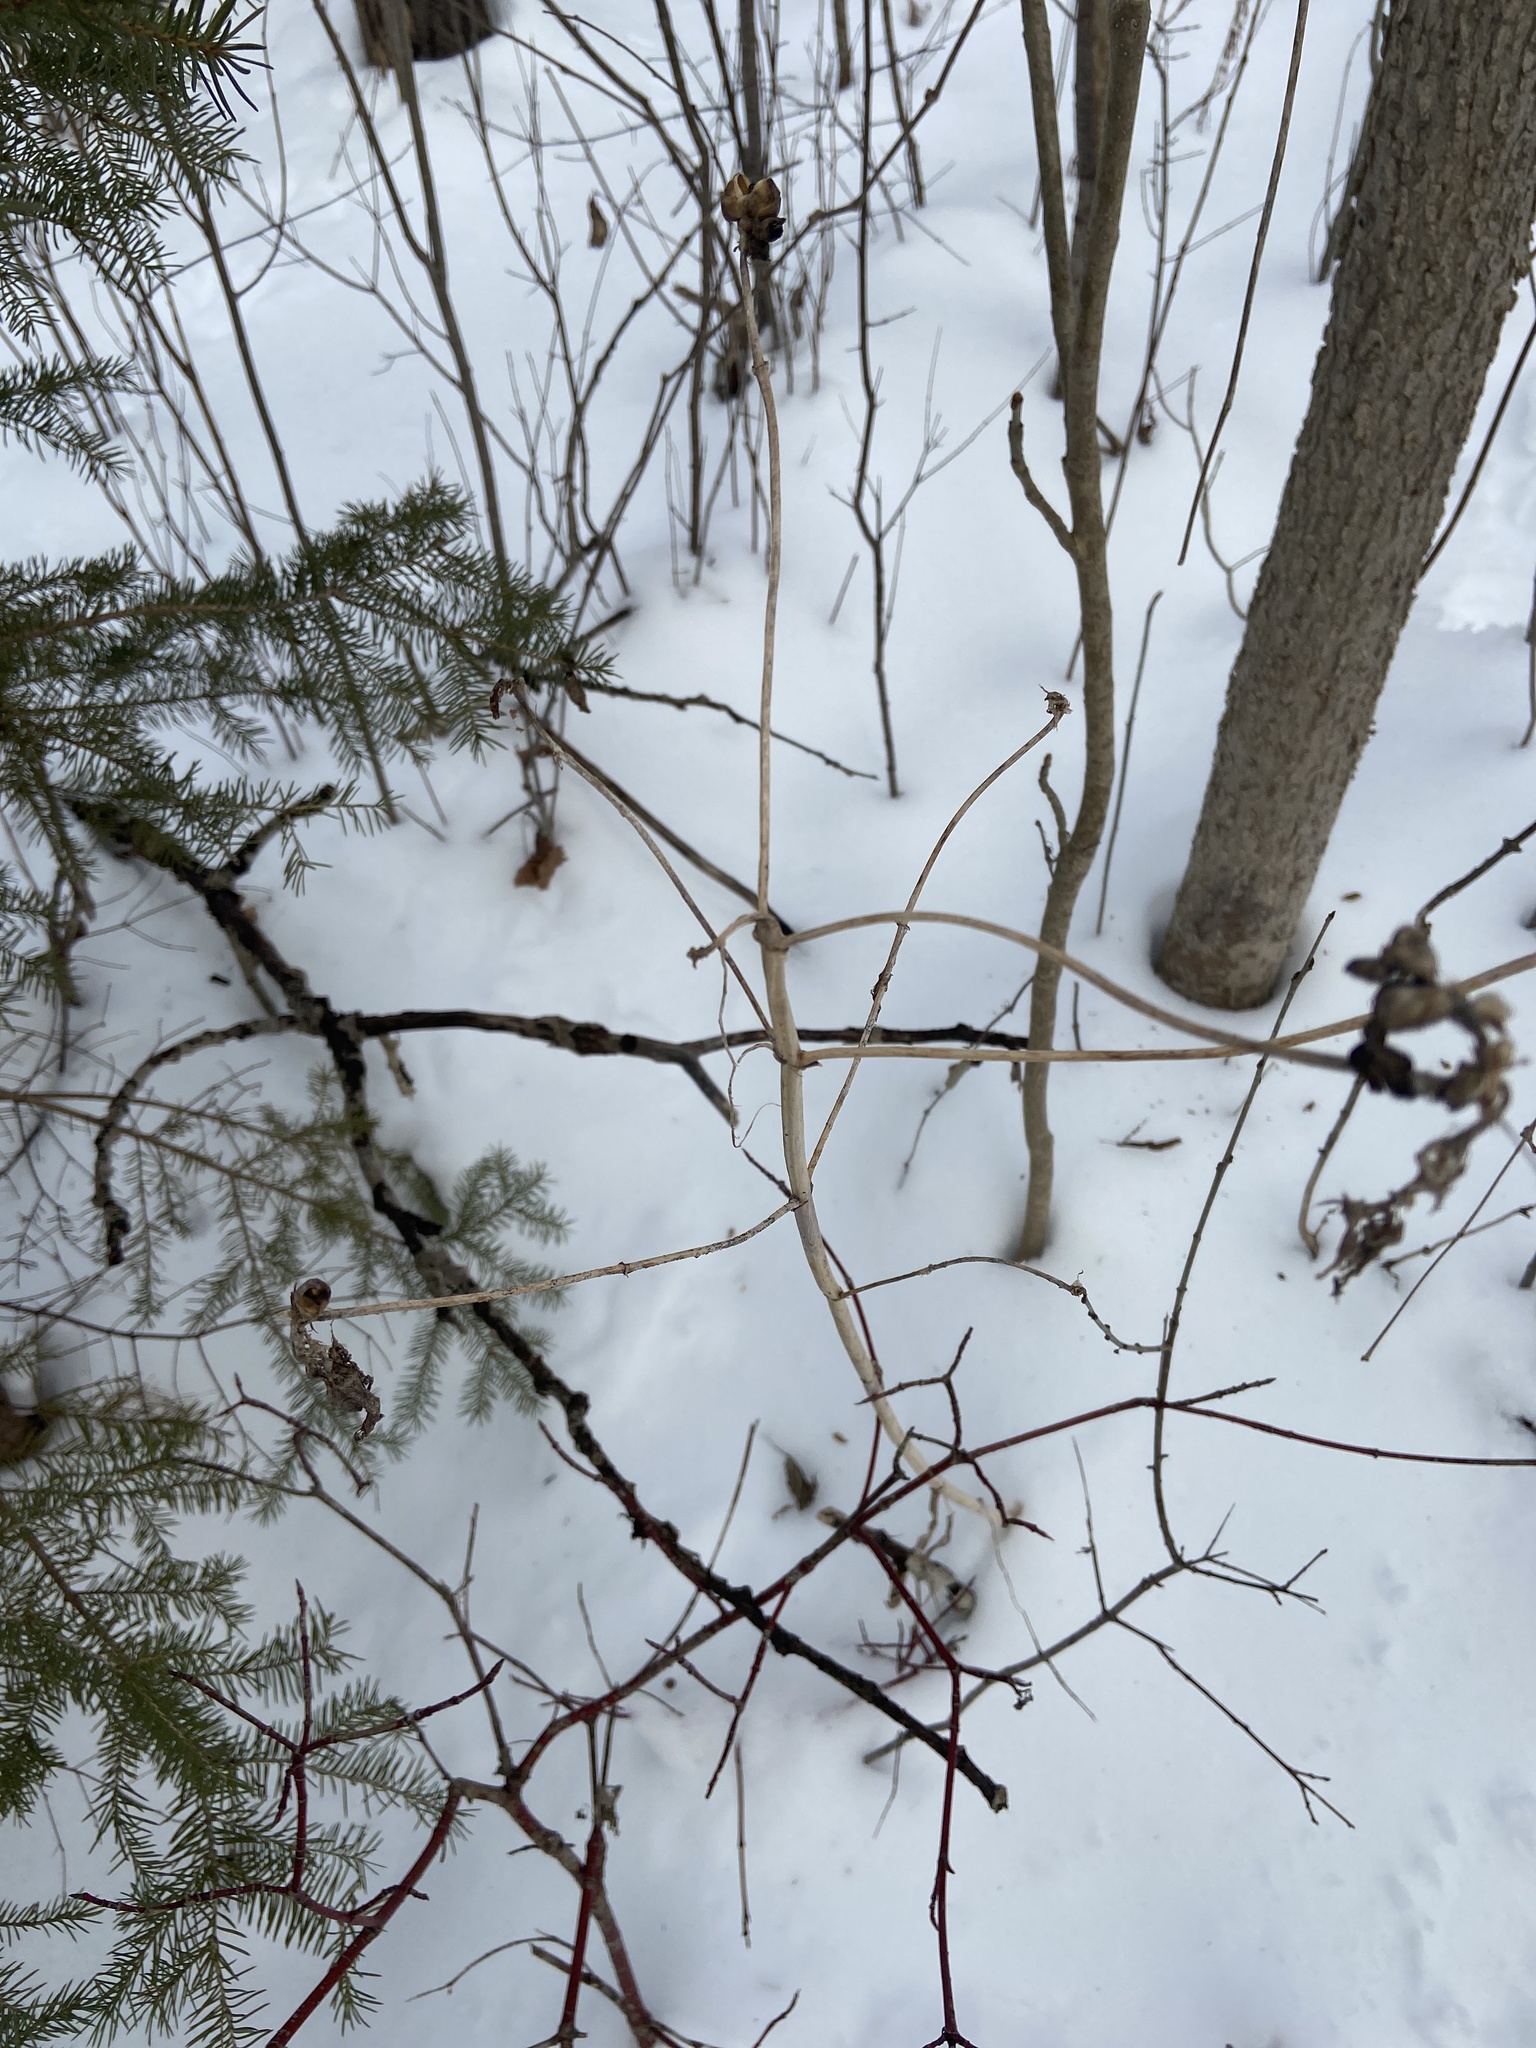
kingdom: Plantae
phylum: Tracheophyta
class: Magnoliopsida
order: Saxifragales
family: Hamamelidaceae
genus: Hamamelis
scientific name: Hamamelis virginiana
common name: Witch-hazel
